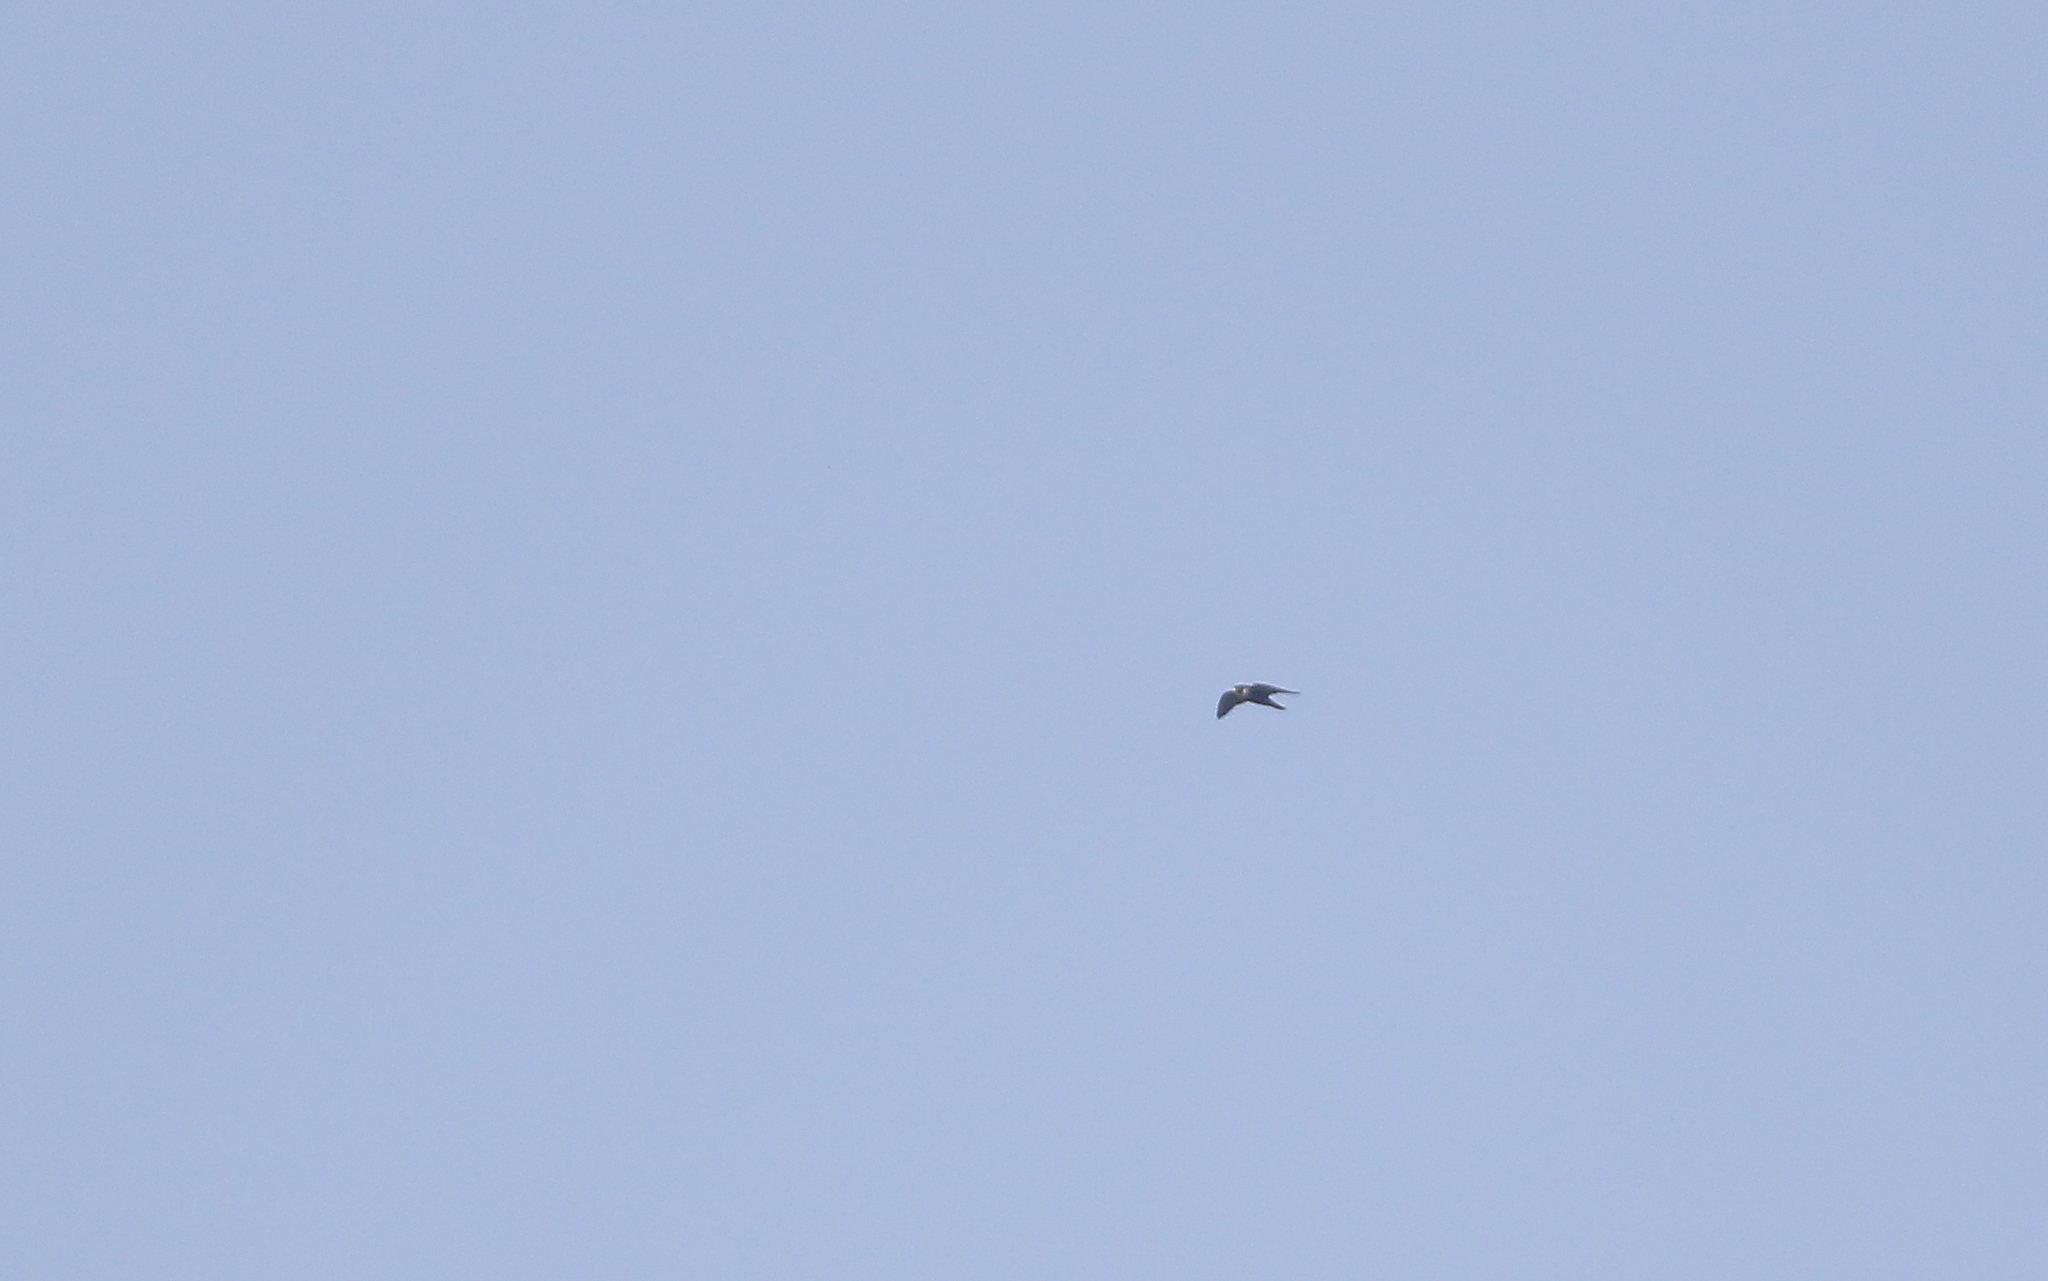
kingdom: Animalia
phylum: Chordata
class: Aves
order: Falconiformes
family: Falconidae
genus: Falco
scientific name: Falco peregrinus
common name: Peregrine falcon
